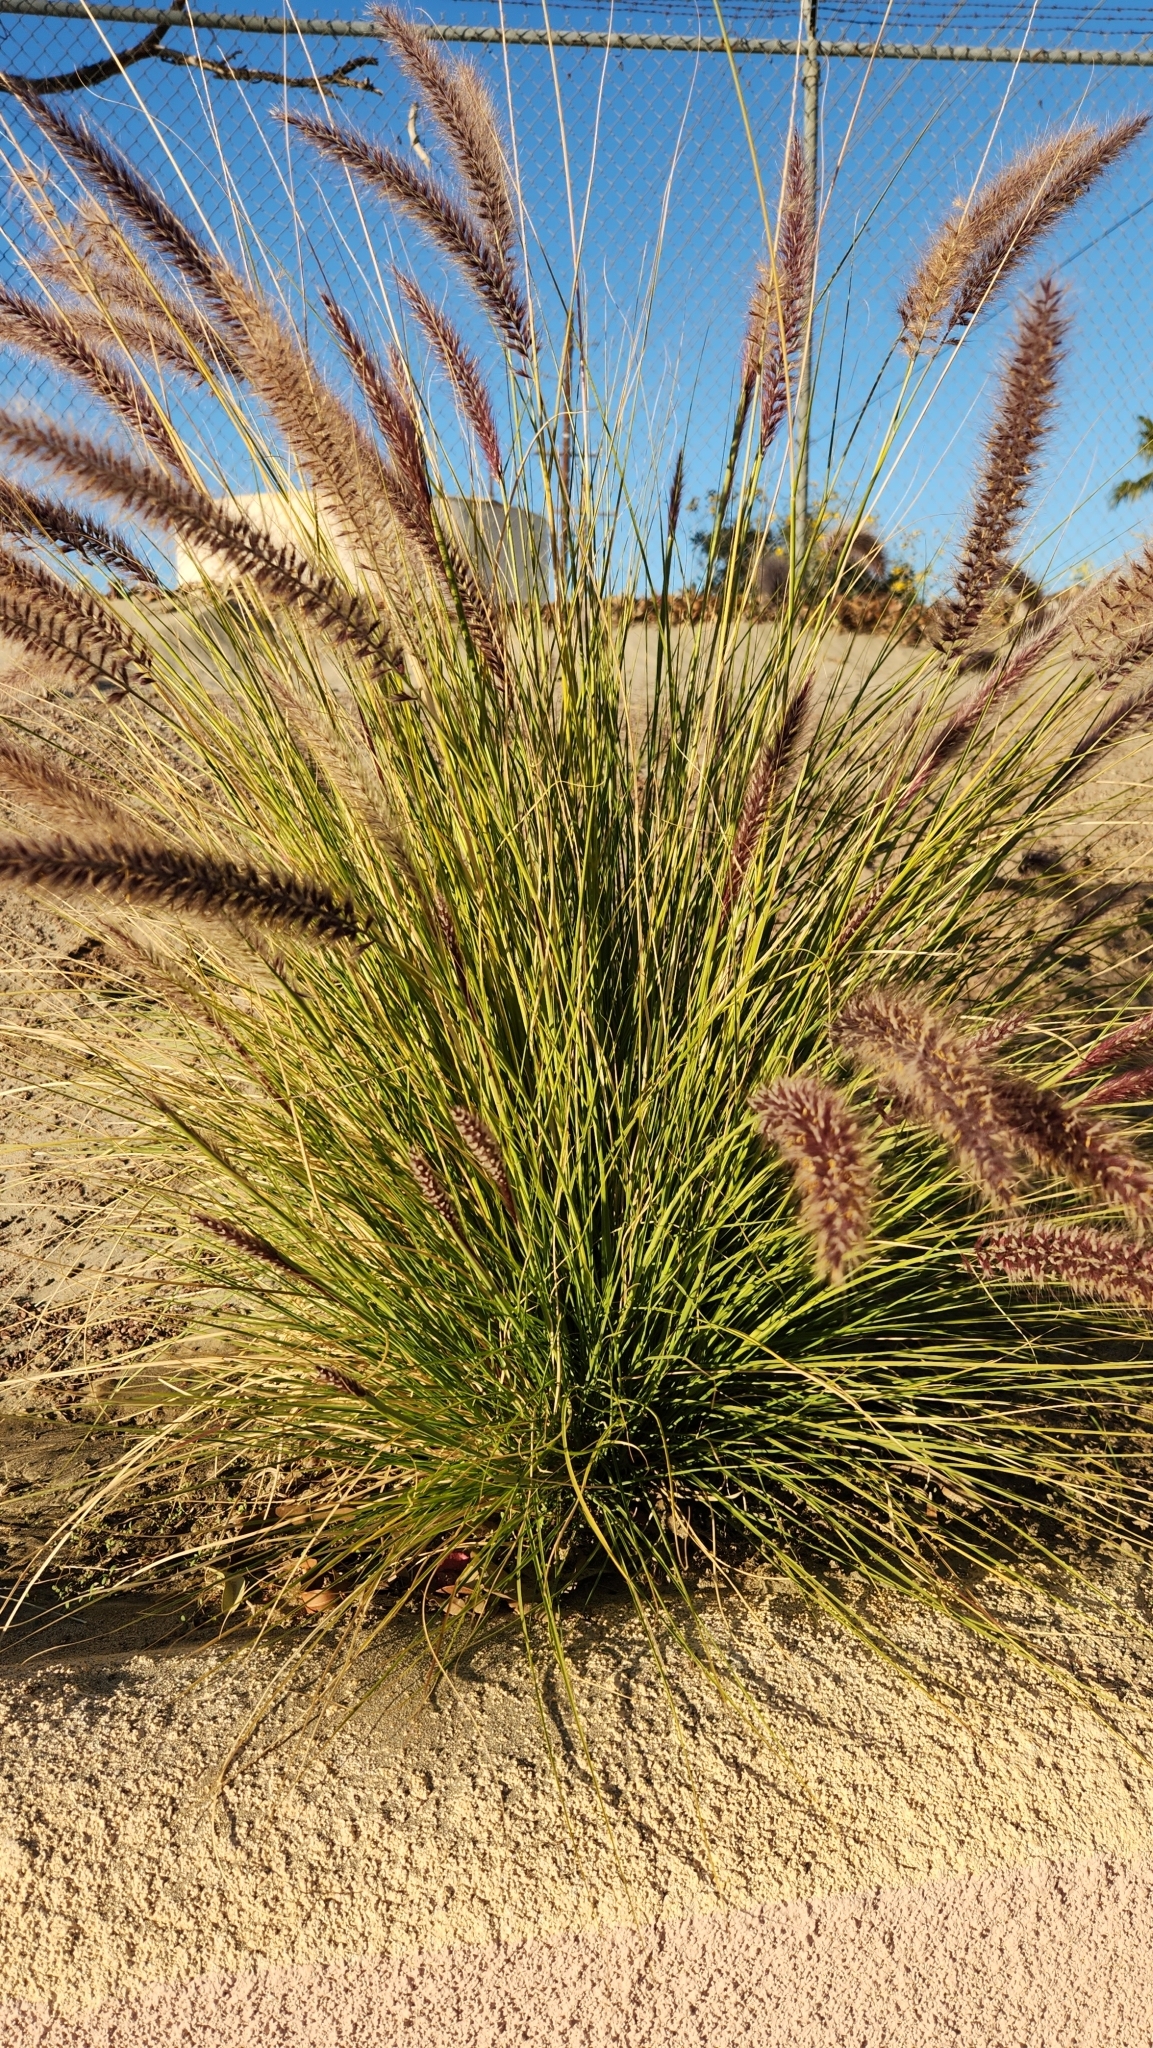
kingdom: Plantae
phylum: Tracheophyta
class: Liliopsida
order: Poales
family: Poaceae
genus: Cenchrus
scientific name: Cenchrus setaceus
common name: Crimson fountaingrass
